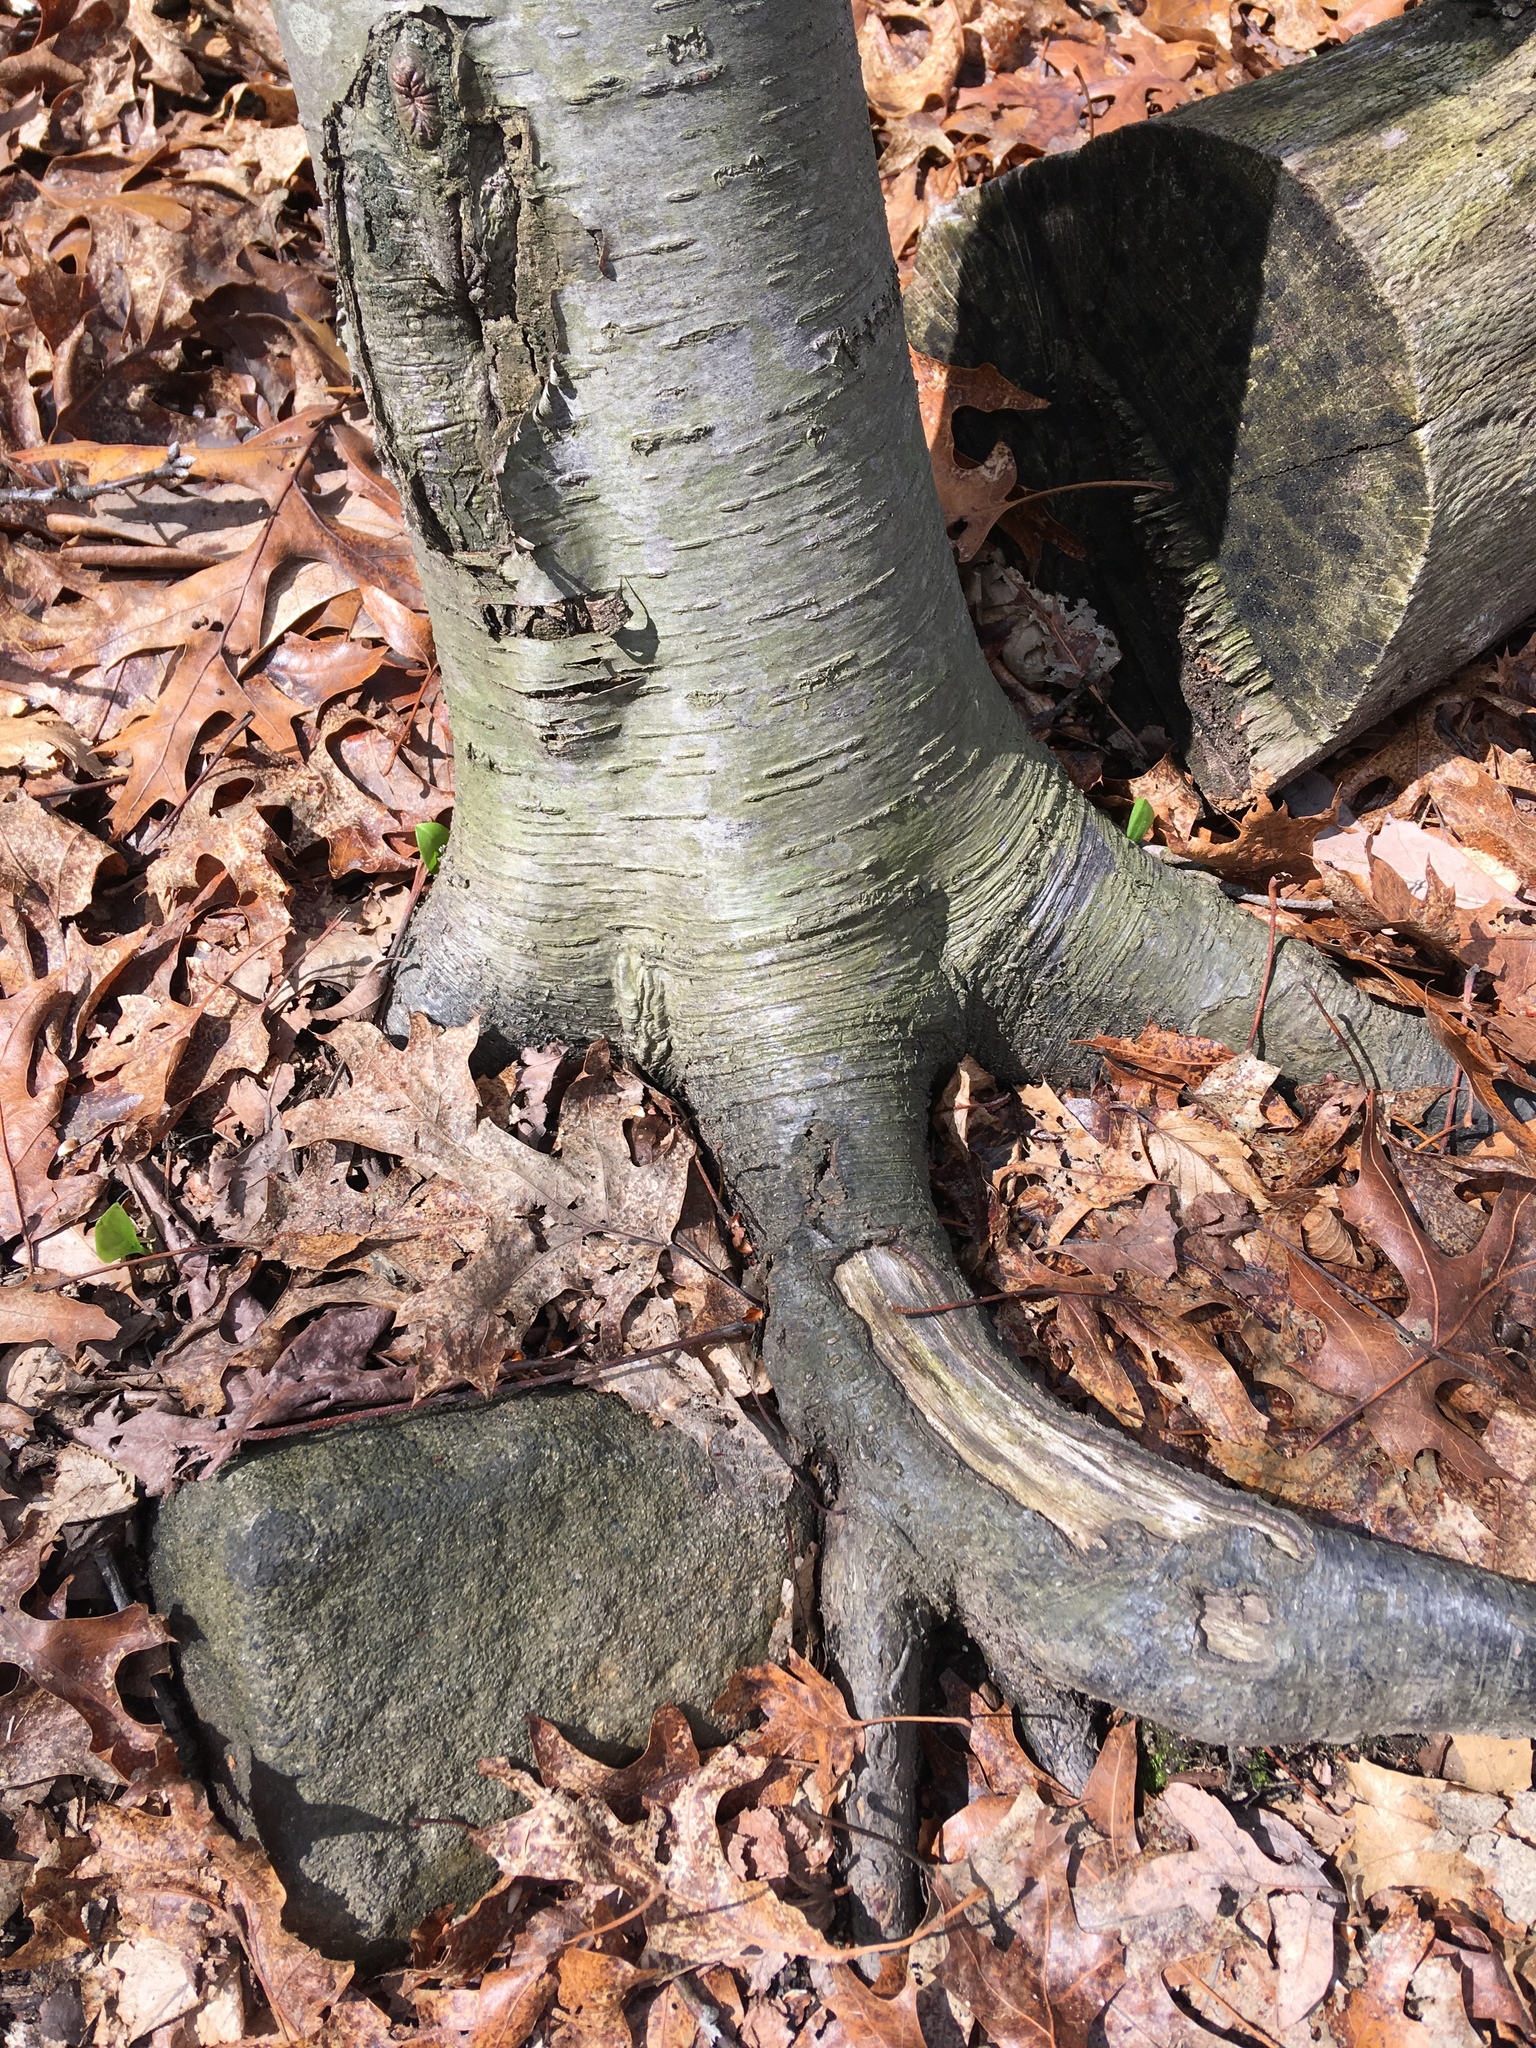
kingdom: Plantae
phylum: Tracheophyta
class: Magnoliopsida
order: Fagales
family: Betulaceae
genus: Betula
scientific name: Betula lenta
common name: Black birch
